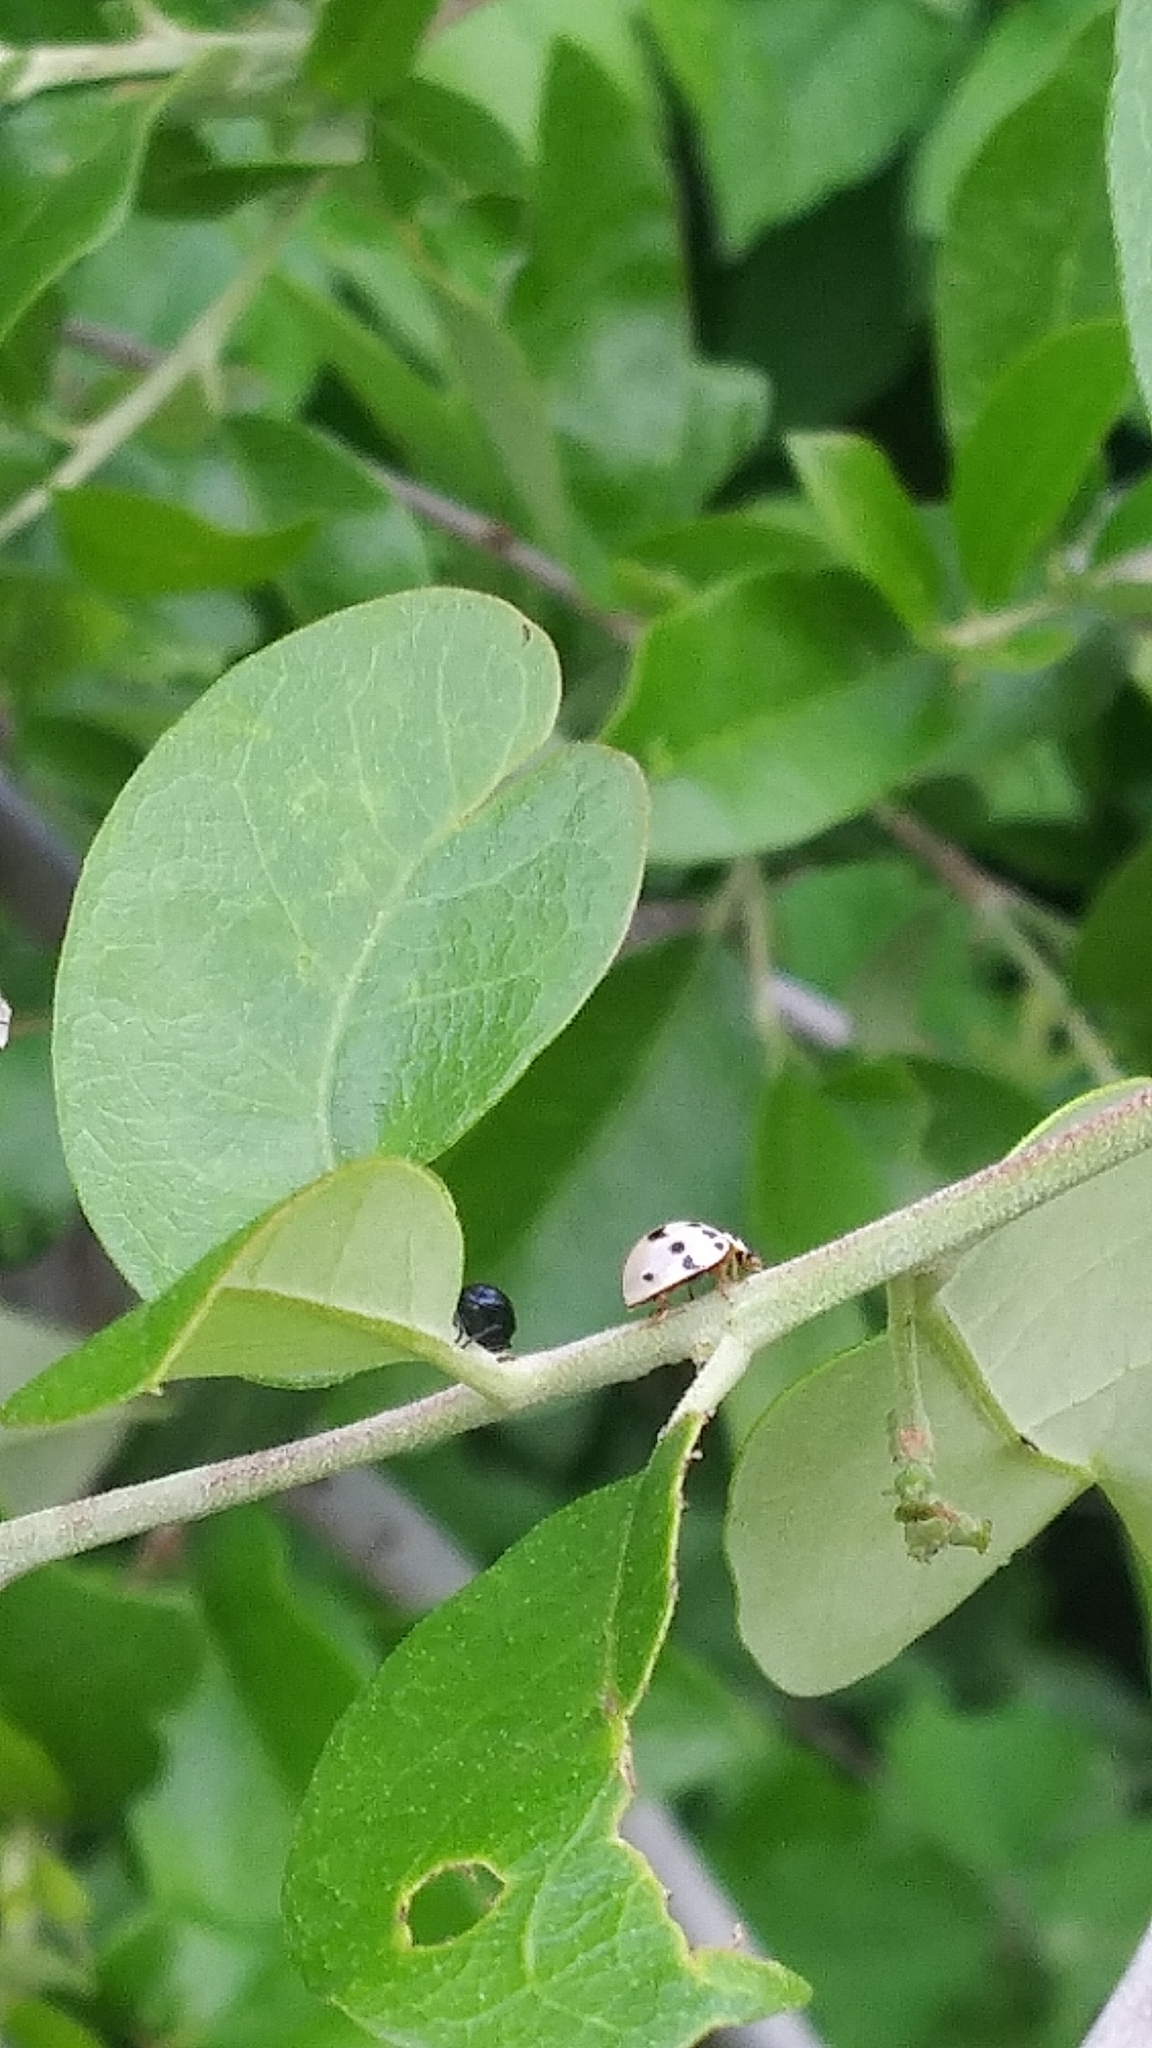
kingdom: Animalia
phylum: Arthropoda
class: Insecta
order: Coleoptera
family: Coccinellidae
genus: Olla
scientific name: Olla v-nigrum
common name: Ashy gray lady beetle
